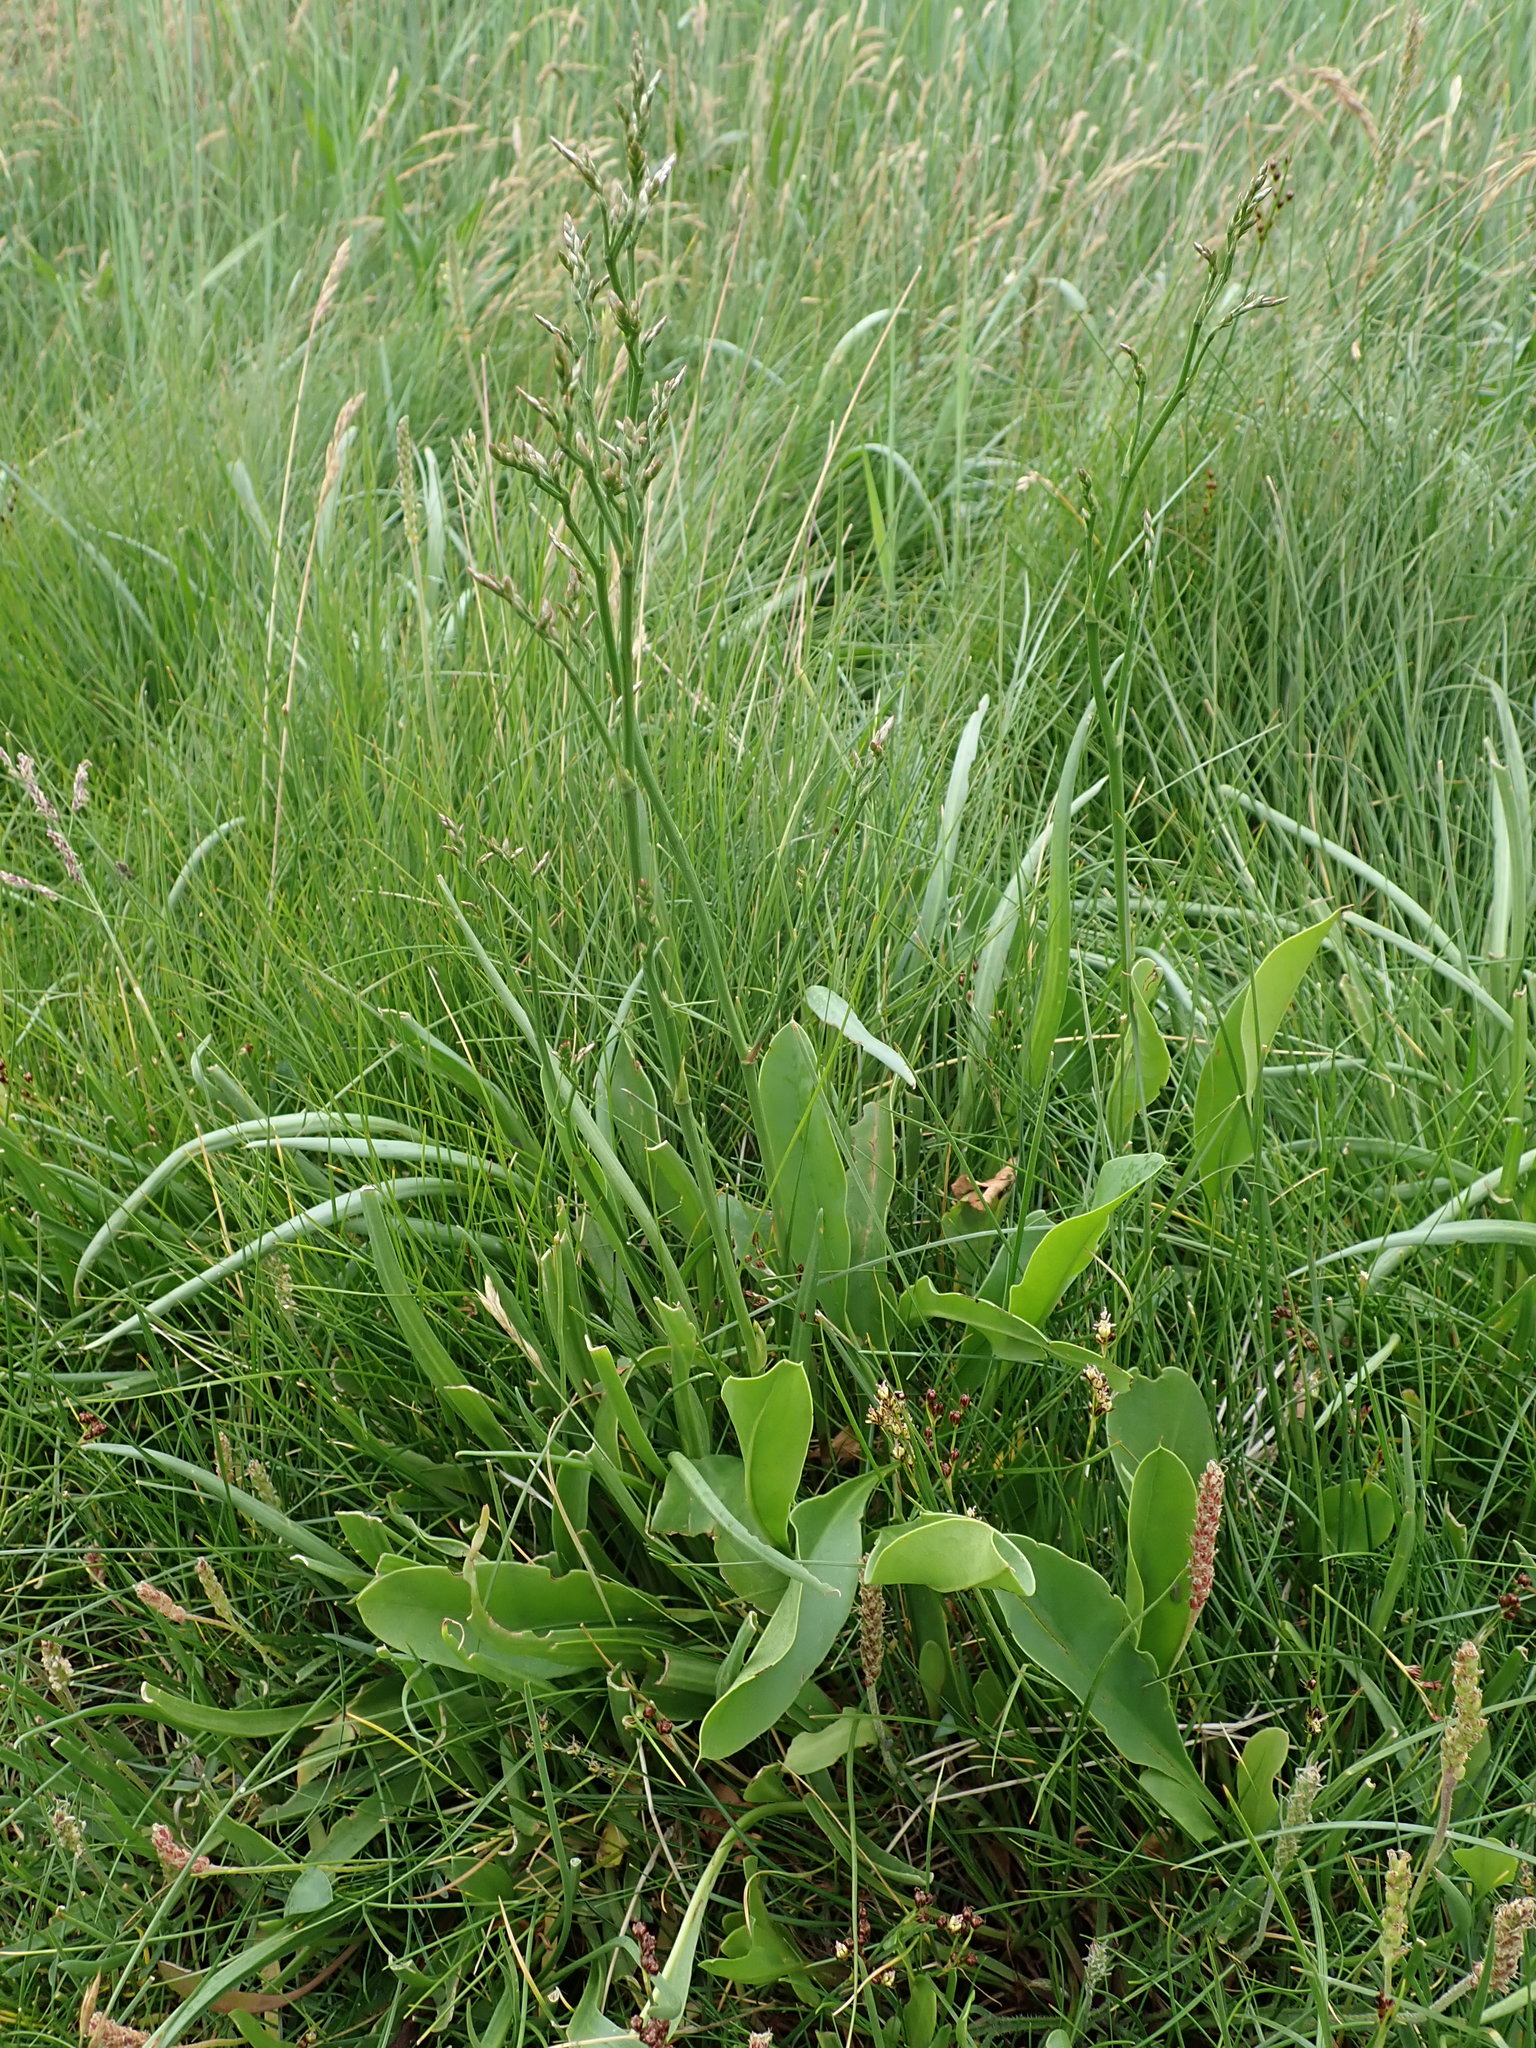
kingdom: Plantae
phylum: Tracheophyta
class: Magnoliopsida
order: Caryophyllales
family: Plumbaginaceae
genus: Limonium
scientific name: Limonium vulgare
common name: Common sea-lavender
